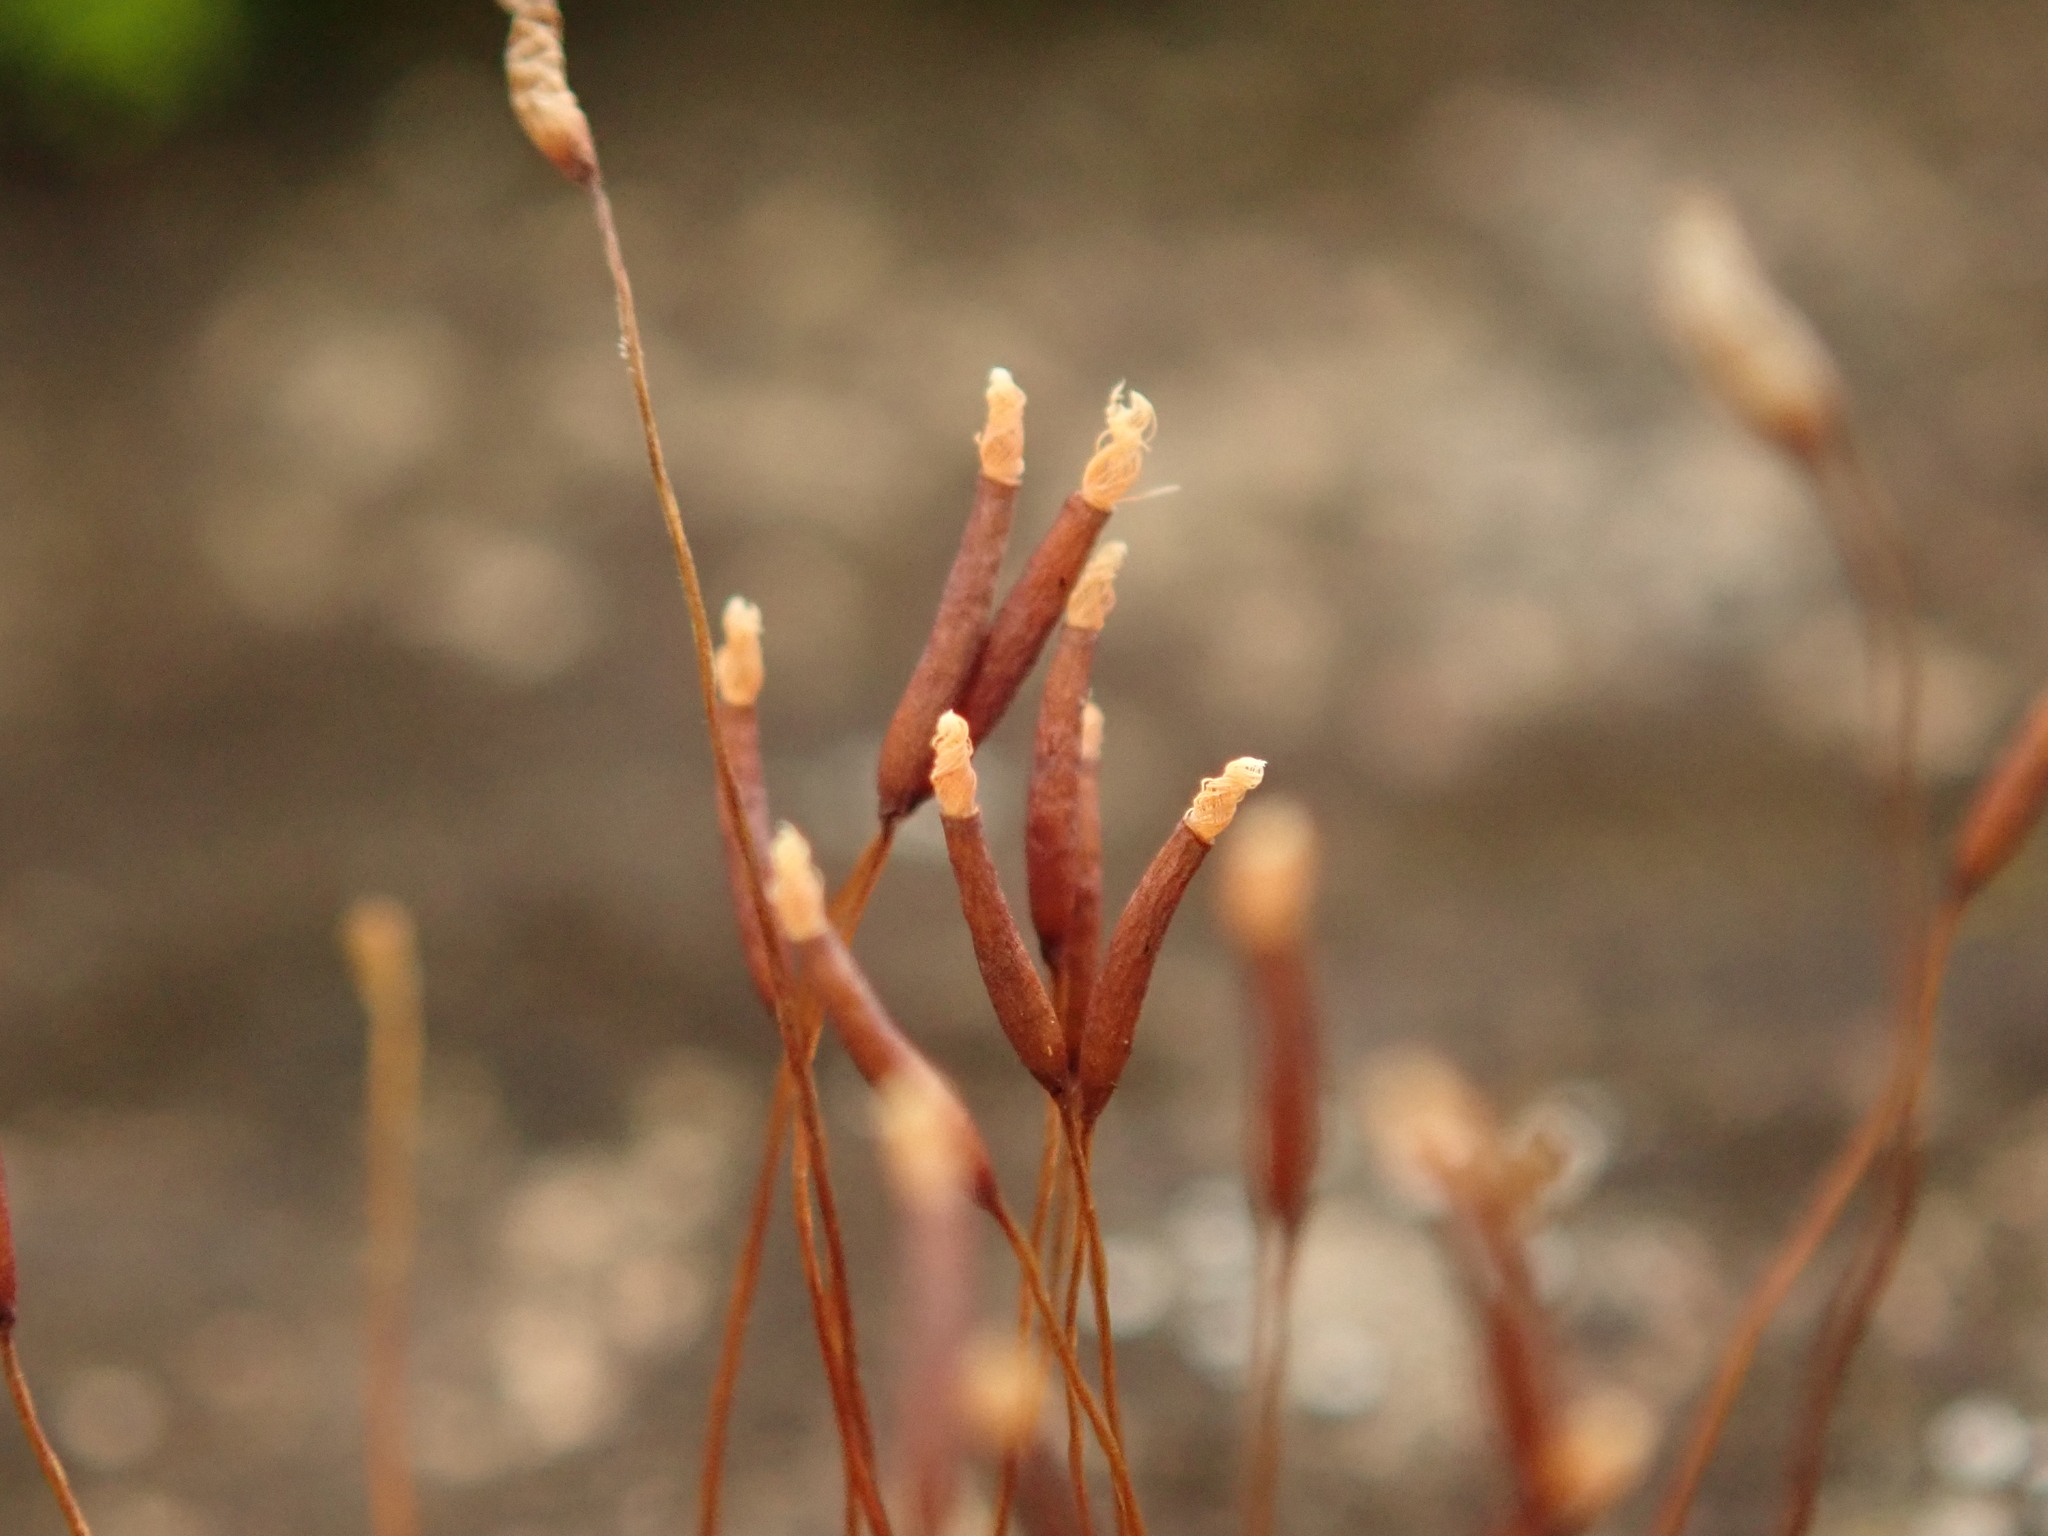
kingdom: Plantae
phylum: Bryophyta
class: Bryopsida
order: Pottiales
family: Pottiaceae
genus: Tortula
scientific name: Tortula muralis
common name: Wall screw-moss
